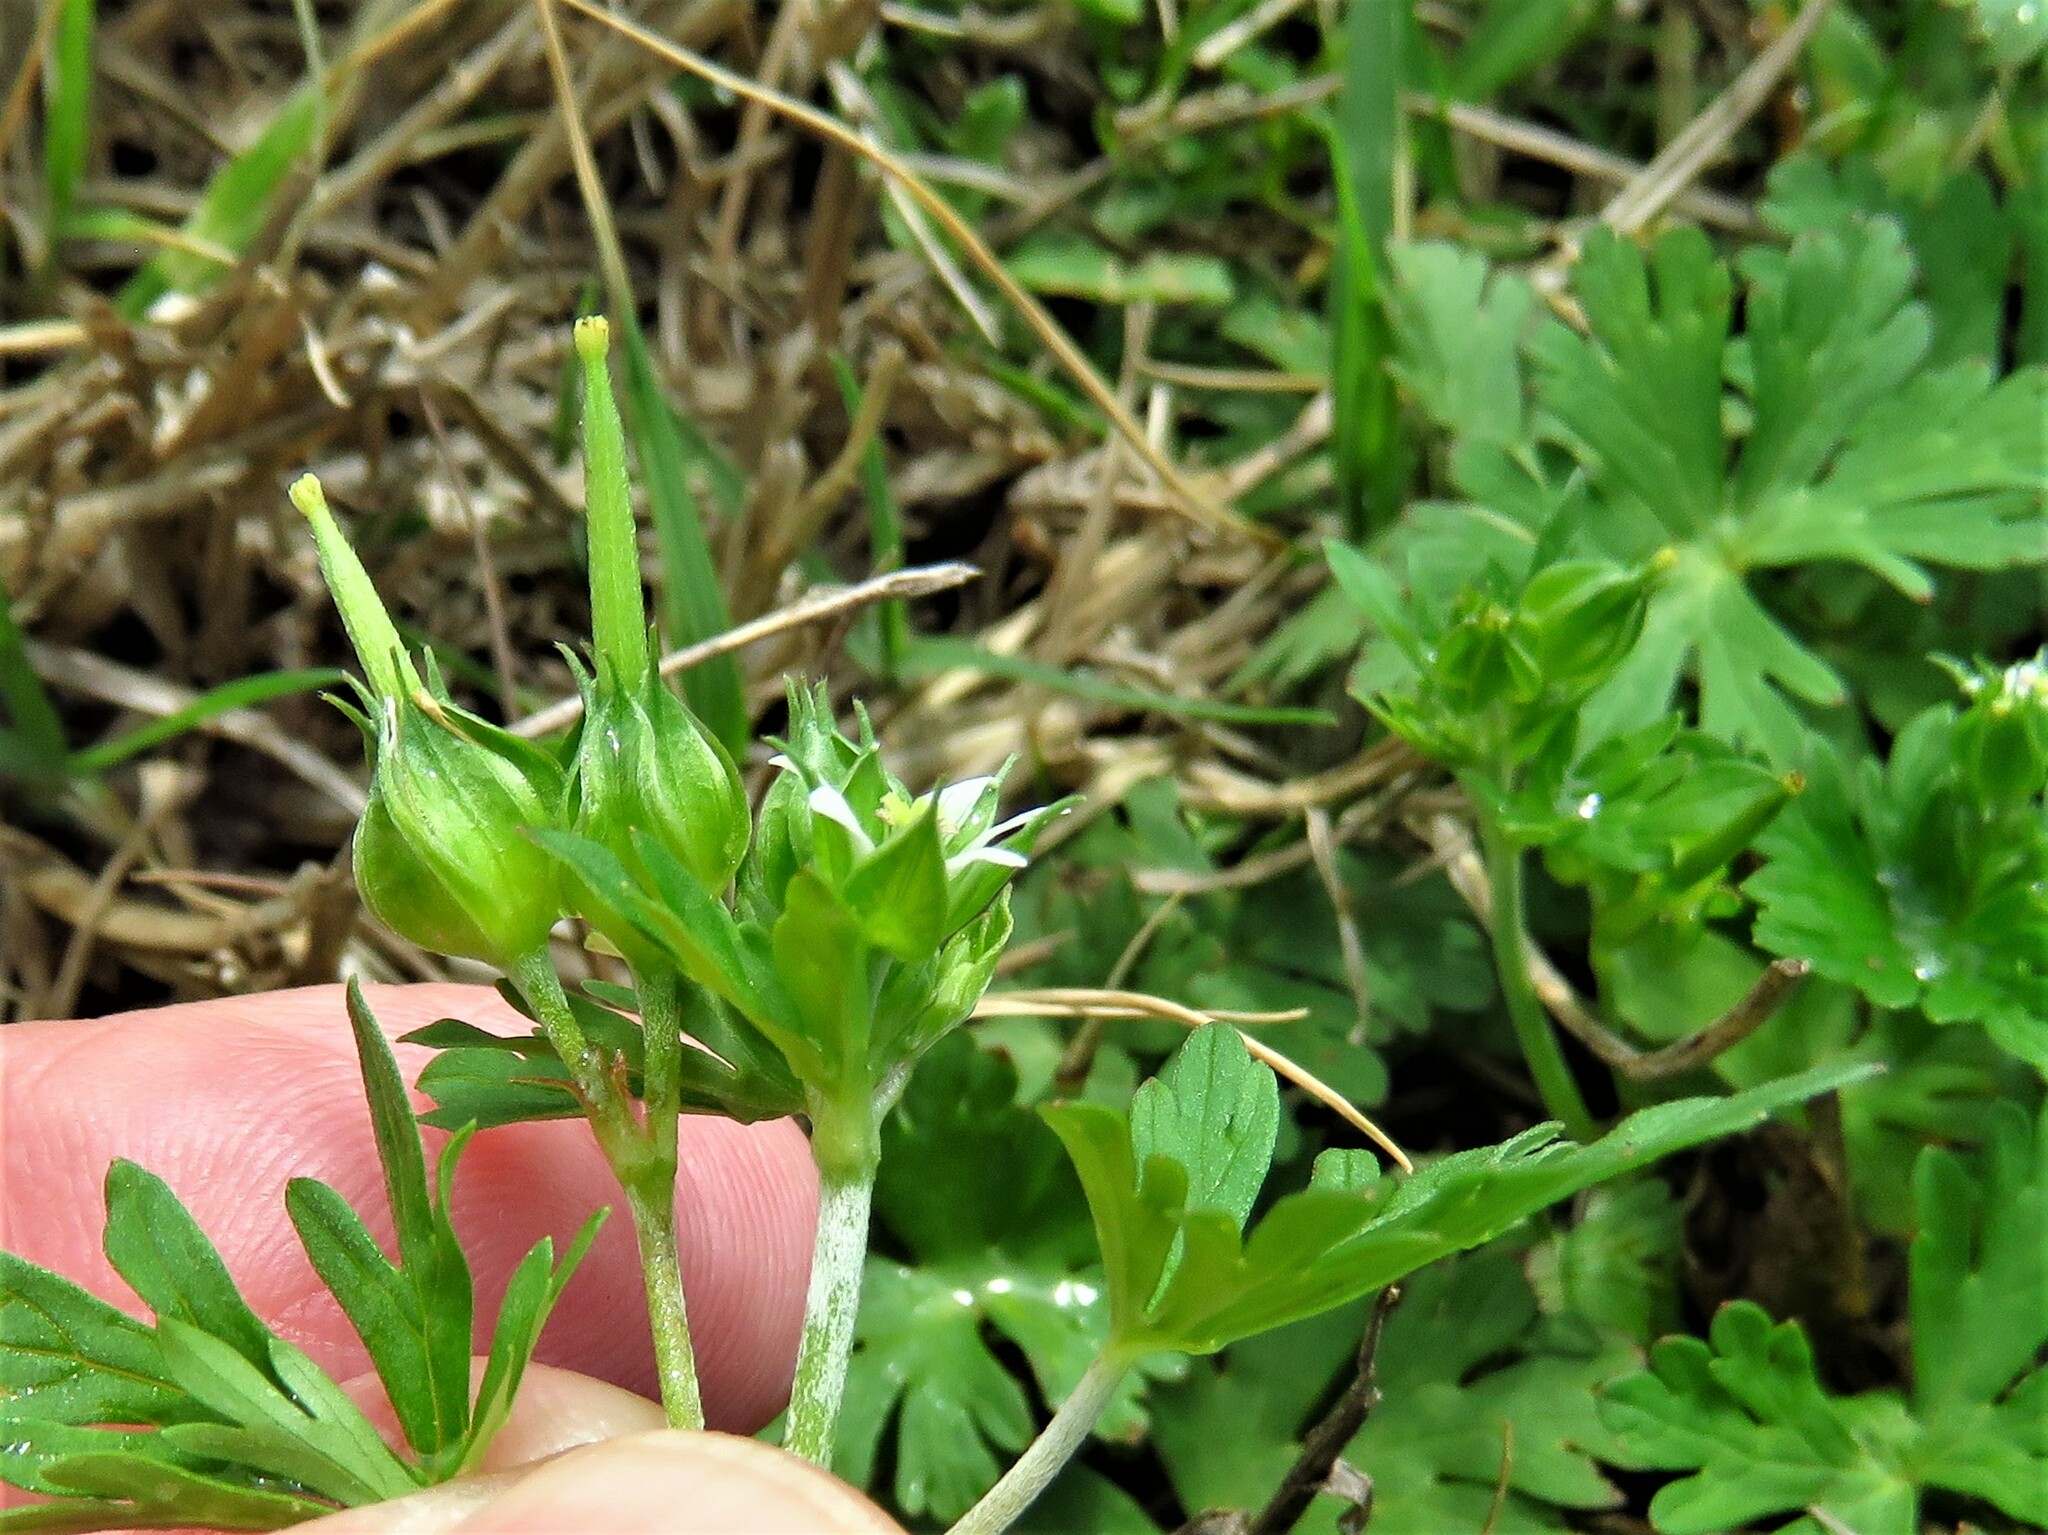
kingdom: Plantae
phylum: Tracheophyta
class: Magnoliopsida
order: Geraniales
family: Geraniaceae
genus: Geranium
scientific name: Geranium texanum
